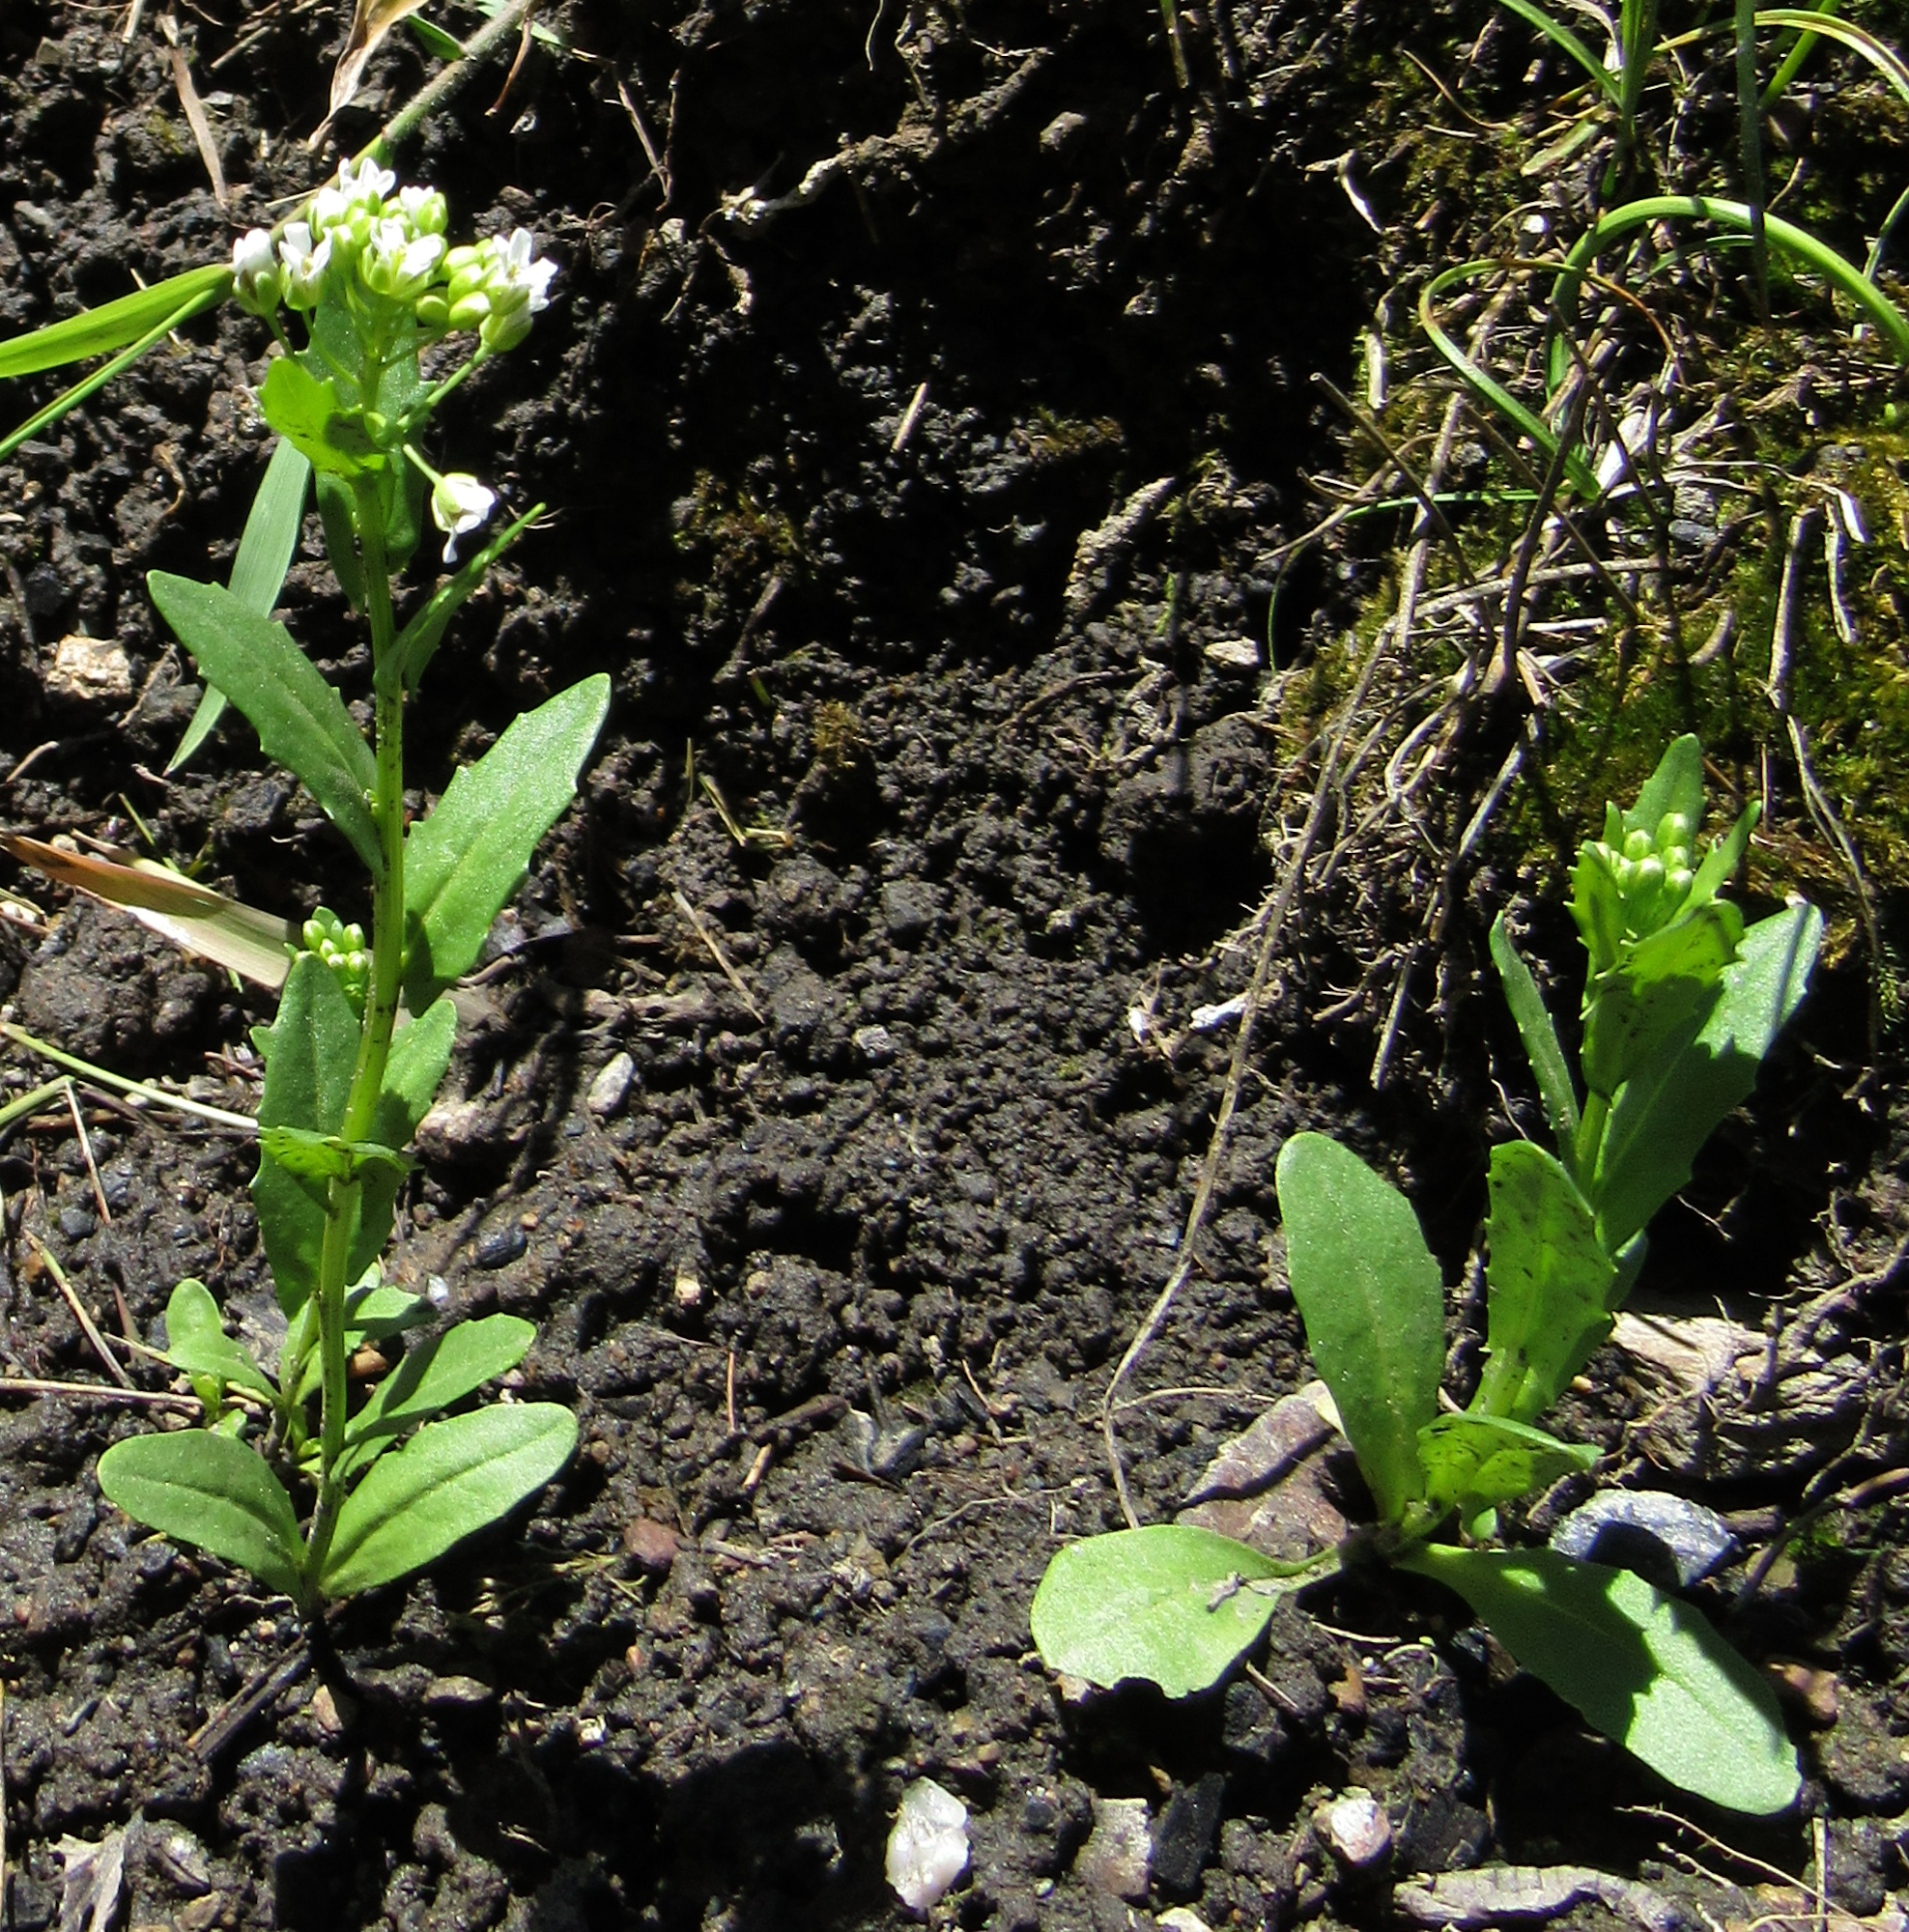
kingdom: Plantae
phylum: Tracheophyta
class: Magnoliopsida
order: Brassicales
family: Brassicaceae
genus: Thlaspi
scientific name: Thlaspi arvense
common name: Field pennycress
